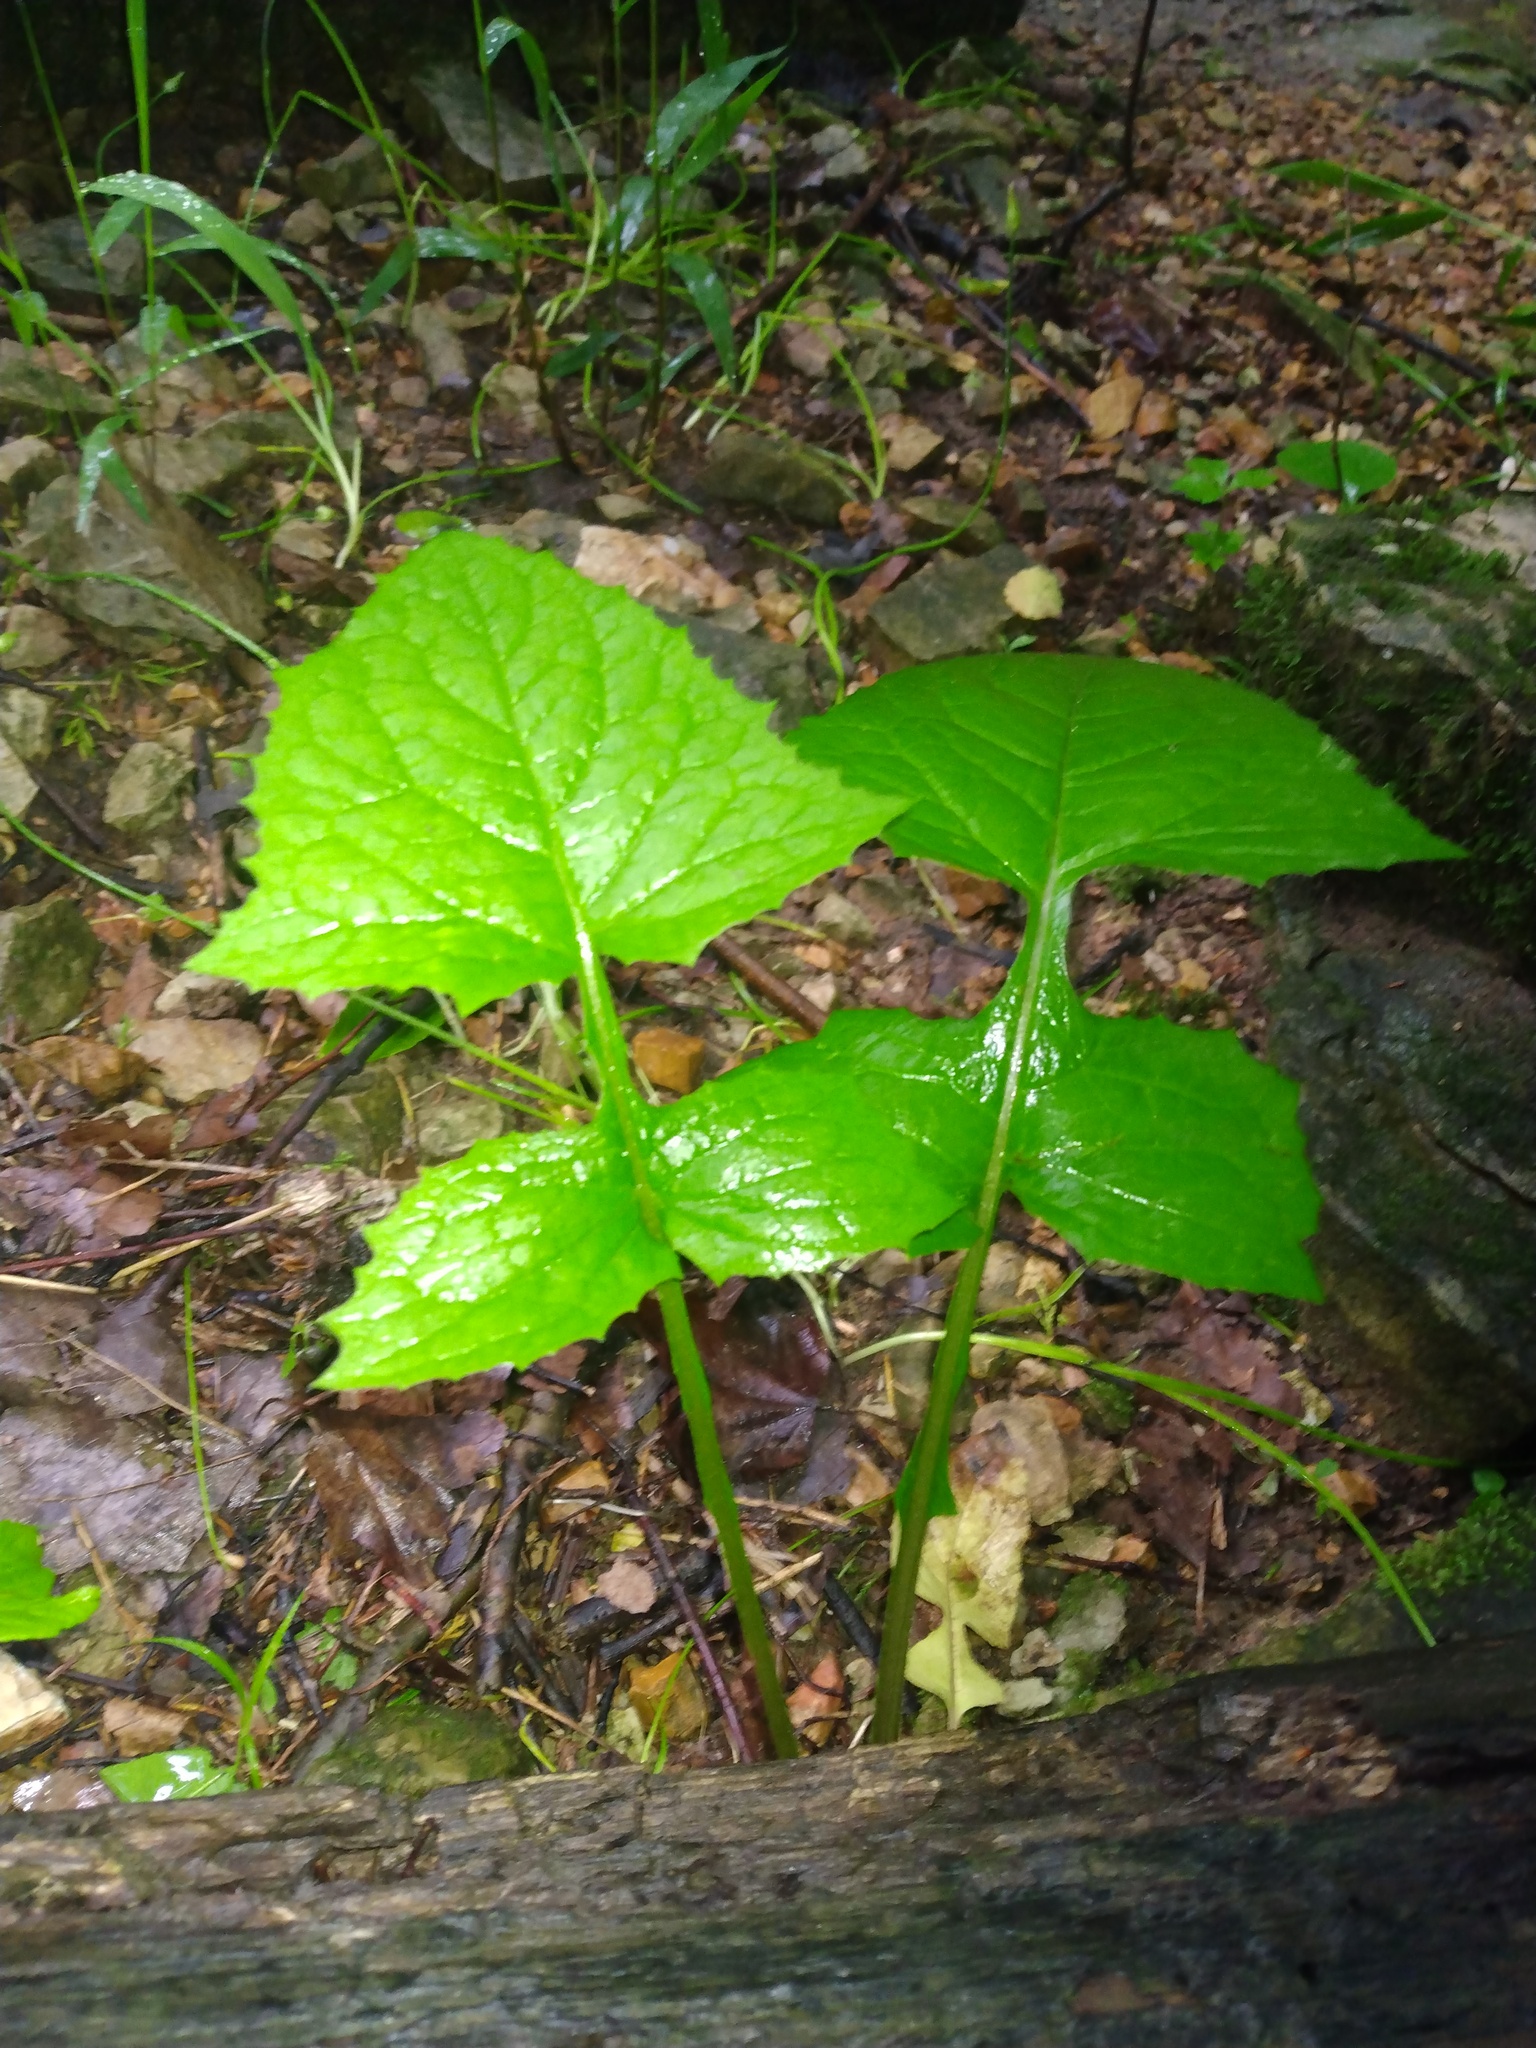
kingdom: Plantae
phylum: Tracheophyta
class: Magnoliopsida
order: Asterales
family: Asteraceae
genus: Lactuca
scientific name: Lactuca floridana
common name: Woodland lettuce
